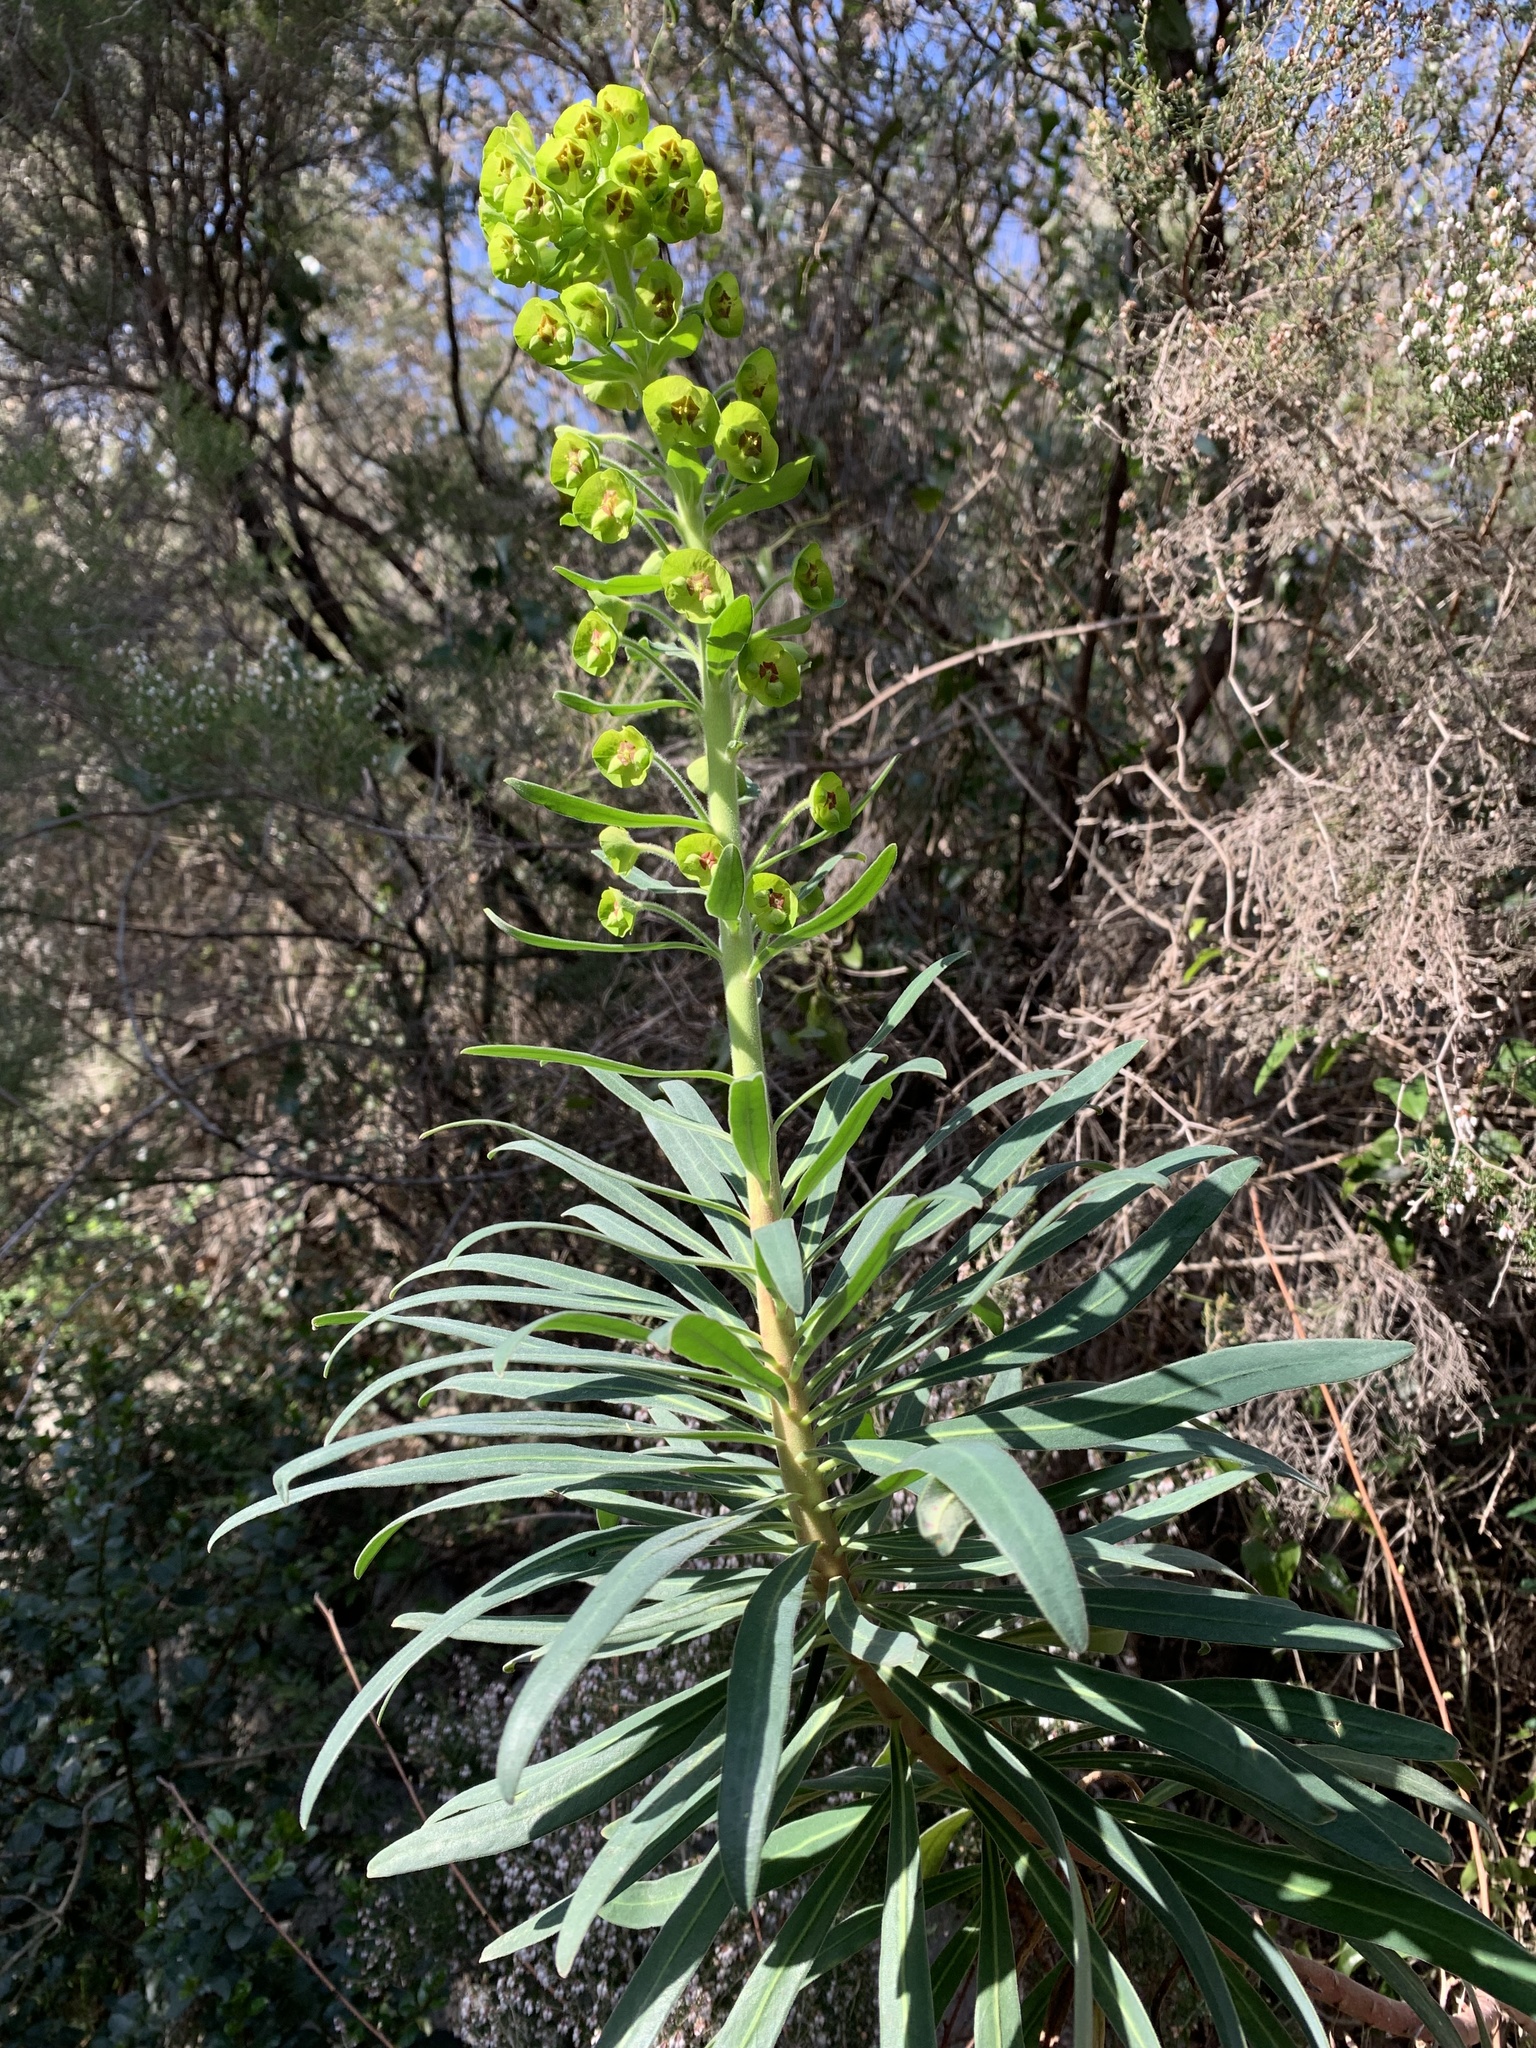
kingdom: Plantae
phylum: Tracheophyta
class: Magnoliopsida
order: Malpighiales
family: Euphorbiaceae
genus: Euphorbia
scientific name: Euphorbia characias
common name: Mediterranean spurge
